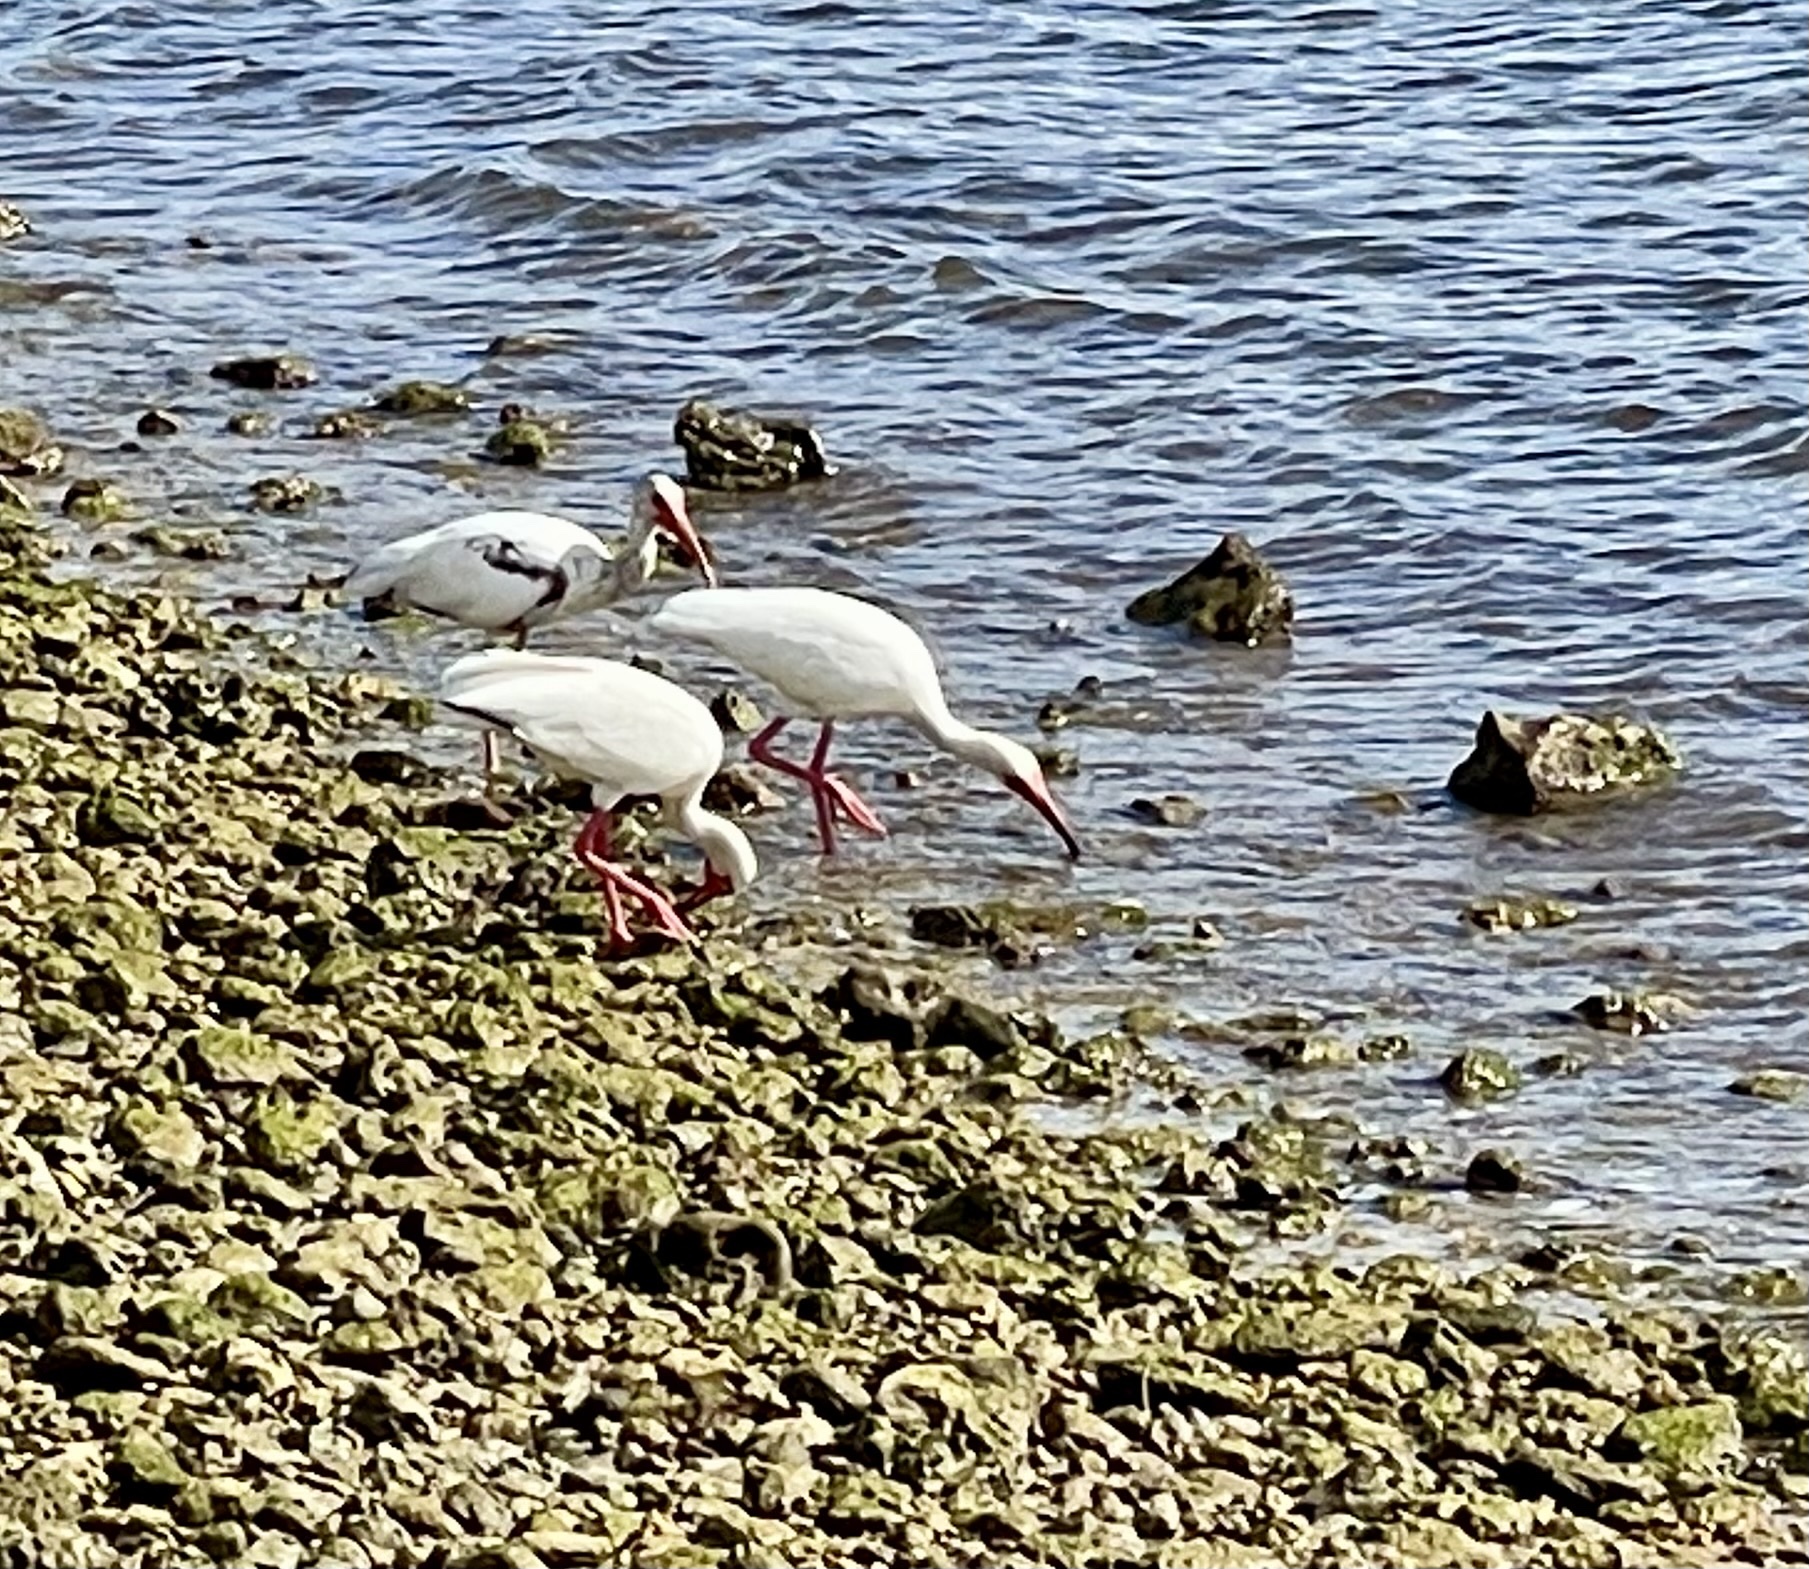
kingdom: Animalia
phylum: Chordata
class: Aves
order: Pelecaniformes
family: Threskiornithidae
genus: Eudocimus
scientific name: Eudocimus albus
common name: White ibis
